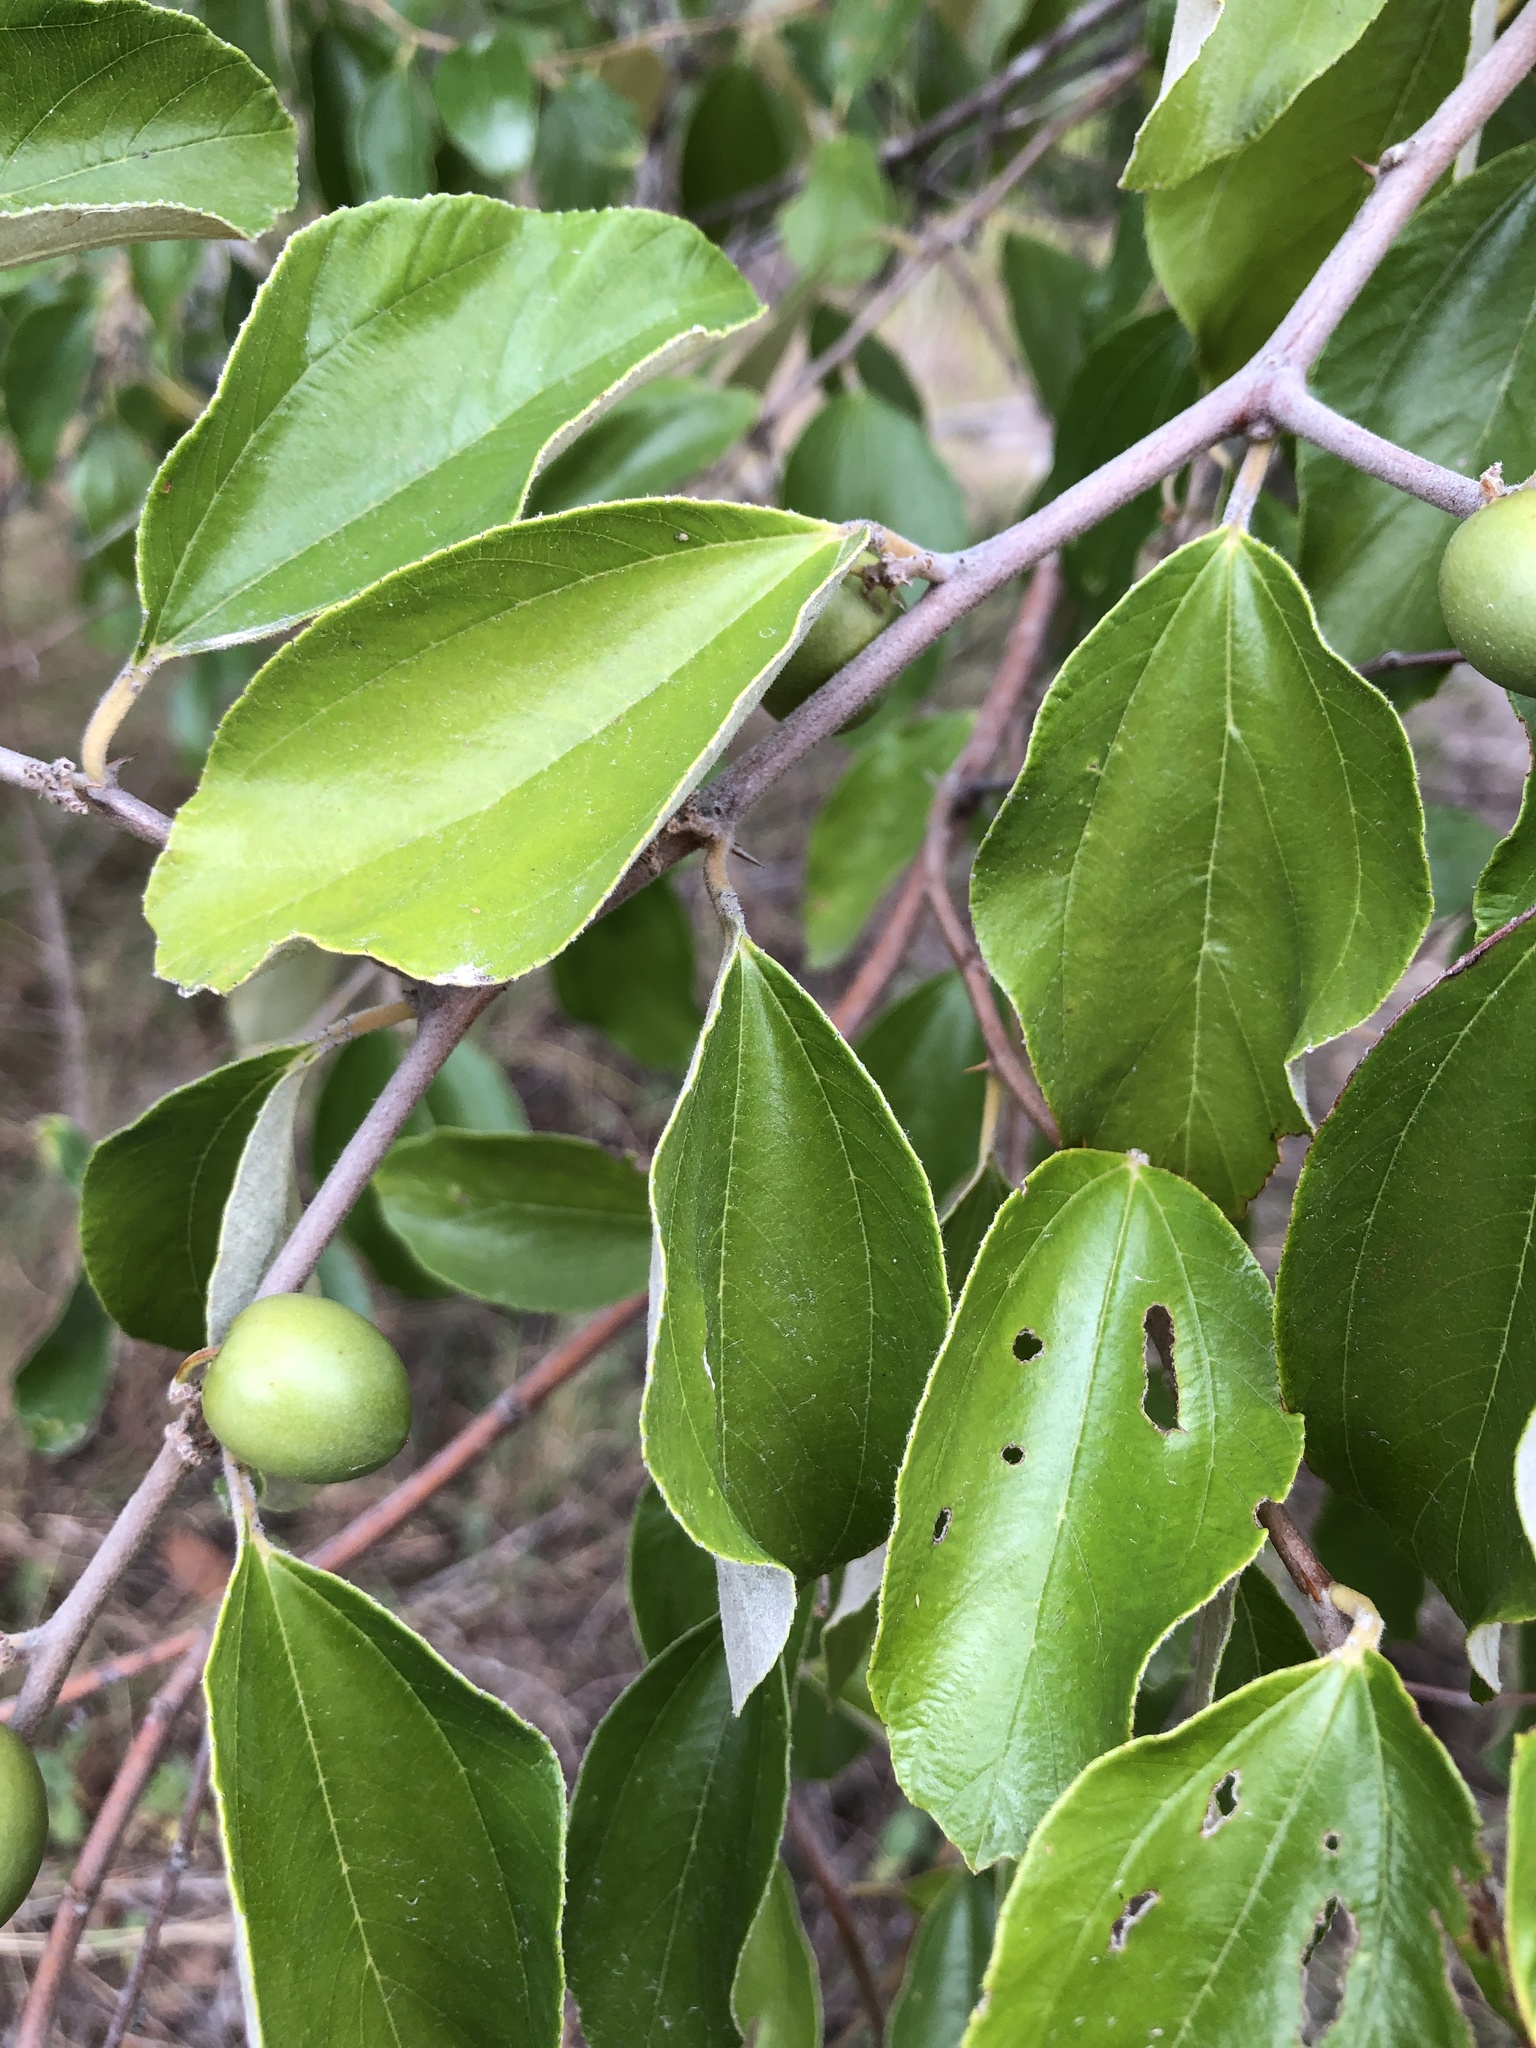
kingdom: Plantae
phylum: Tracheophyta
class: Magnoliopsida
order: Rosales
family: Rhamnaceae
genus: Ziziphus
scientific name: Ziziphus mauritiana
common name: Indian jujube
